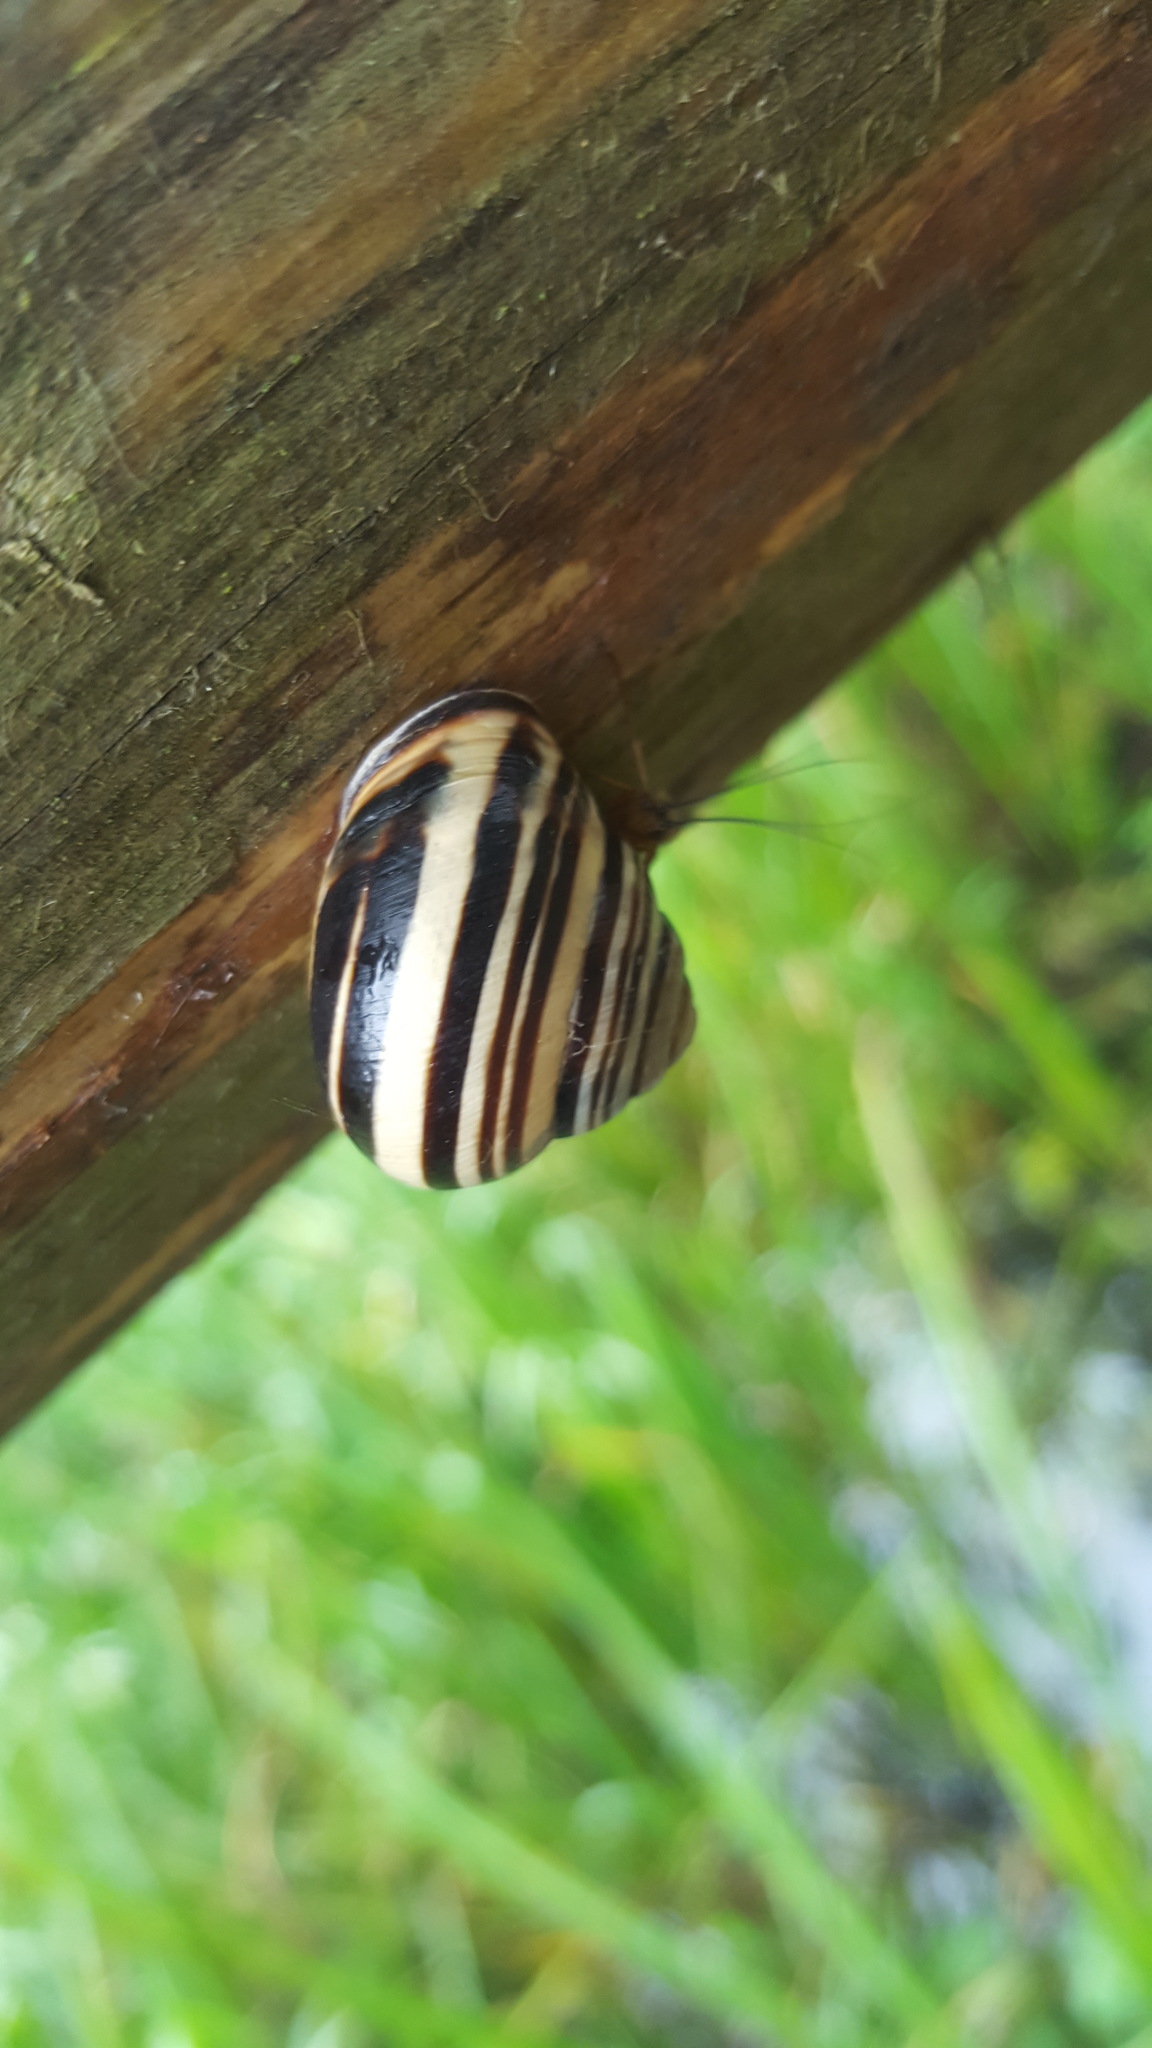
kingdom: Animalia
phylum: Mollusca
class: Gastropoda
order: Stylommatophora
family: Helicidae
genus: Cepaea
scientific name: Cepaea nemoralis
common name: Grovesnail
